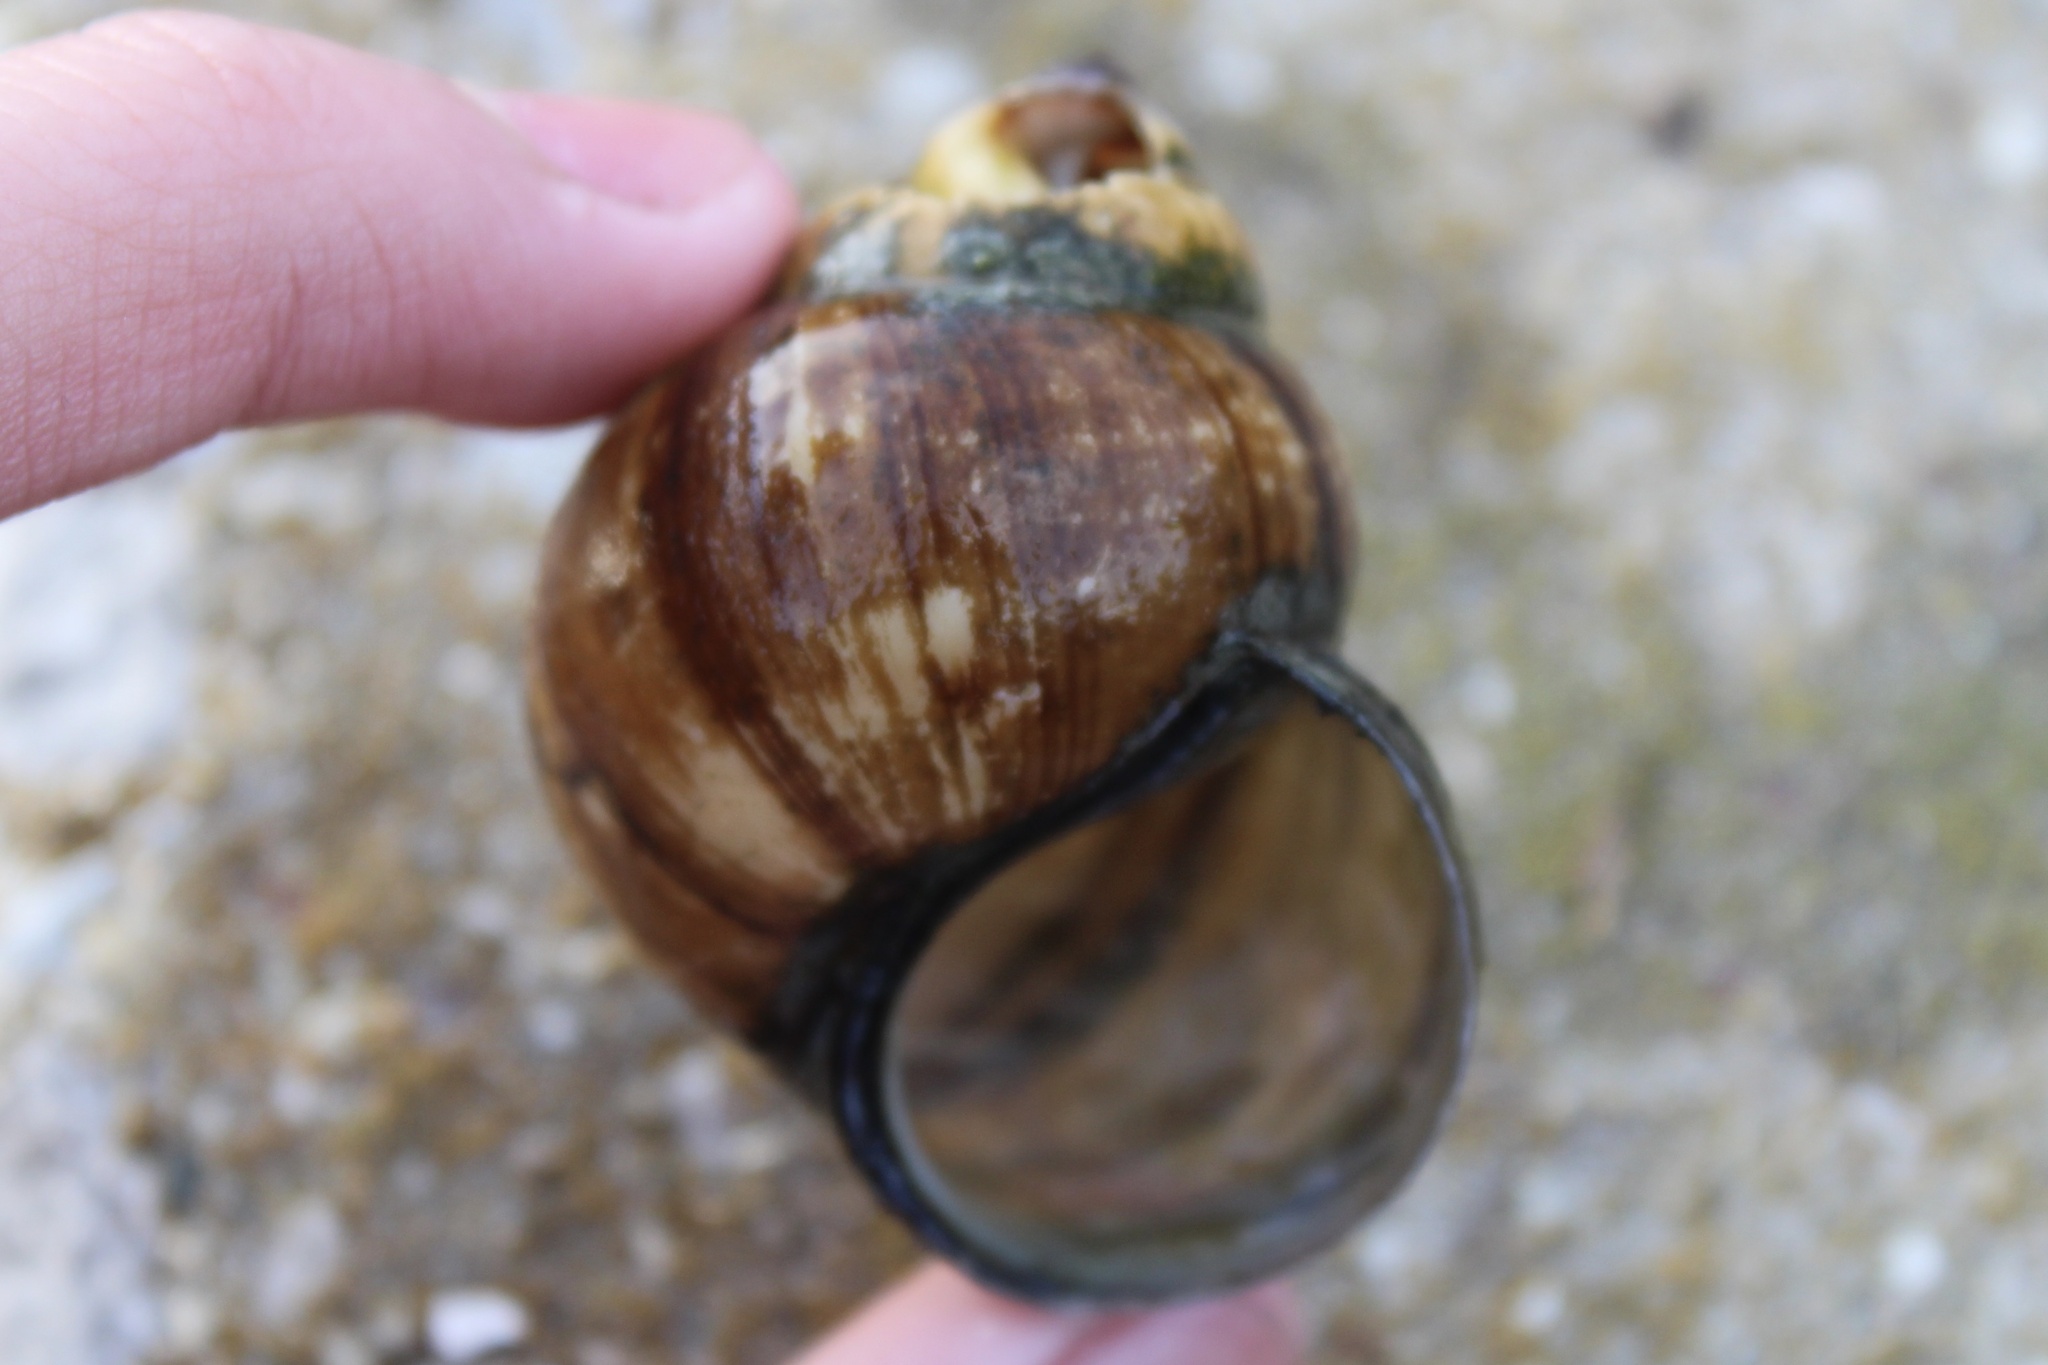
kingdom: Animalia
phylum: Mollusca
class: Gastropoda
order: Architaenioglossa
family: Viviparidae
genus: Cipangopaludina
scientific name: Cipangopaludina chinensis
